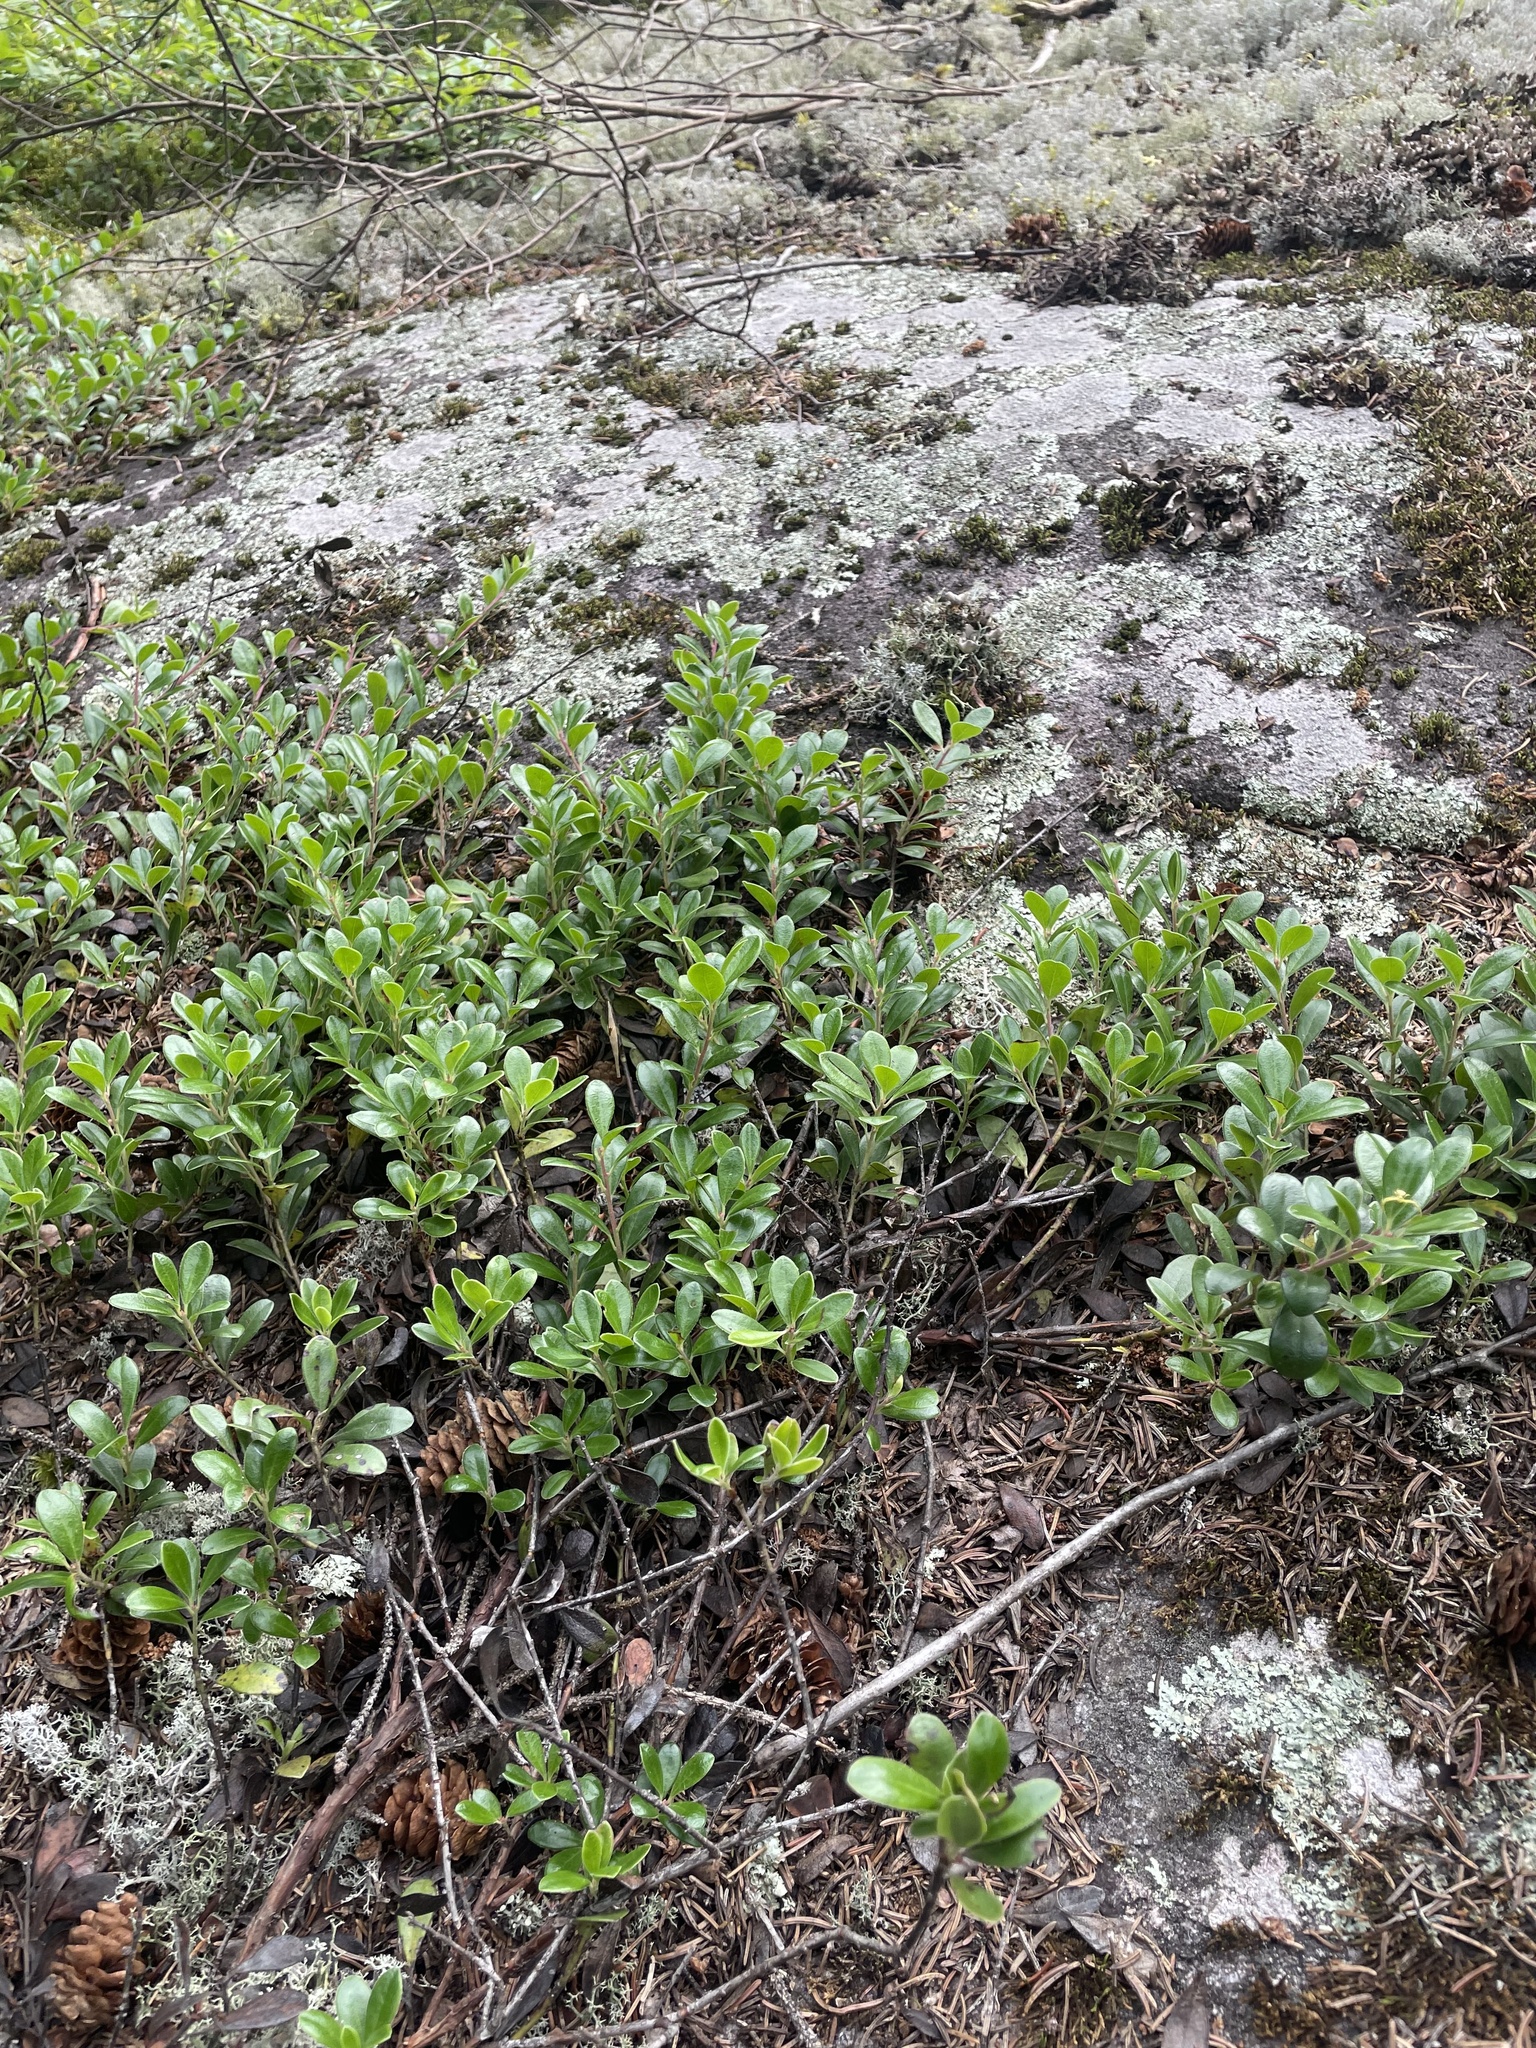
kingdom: Plantae
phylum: Tracheophyta
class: Magnoliopsida
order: Ericales
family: Ericaceae
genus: Arctostaphylos
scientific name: Arctostaphylos uva-ursi
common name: Bearberry
